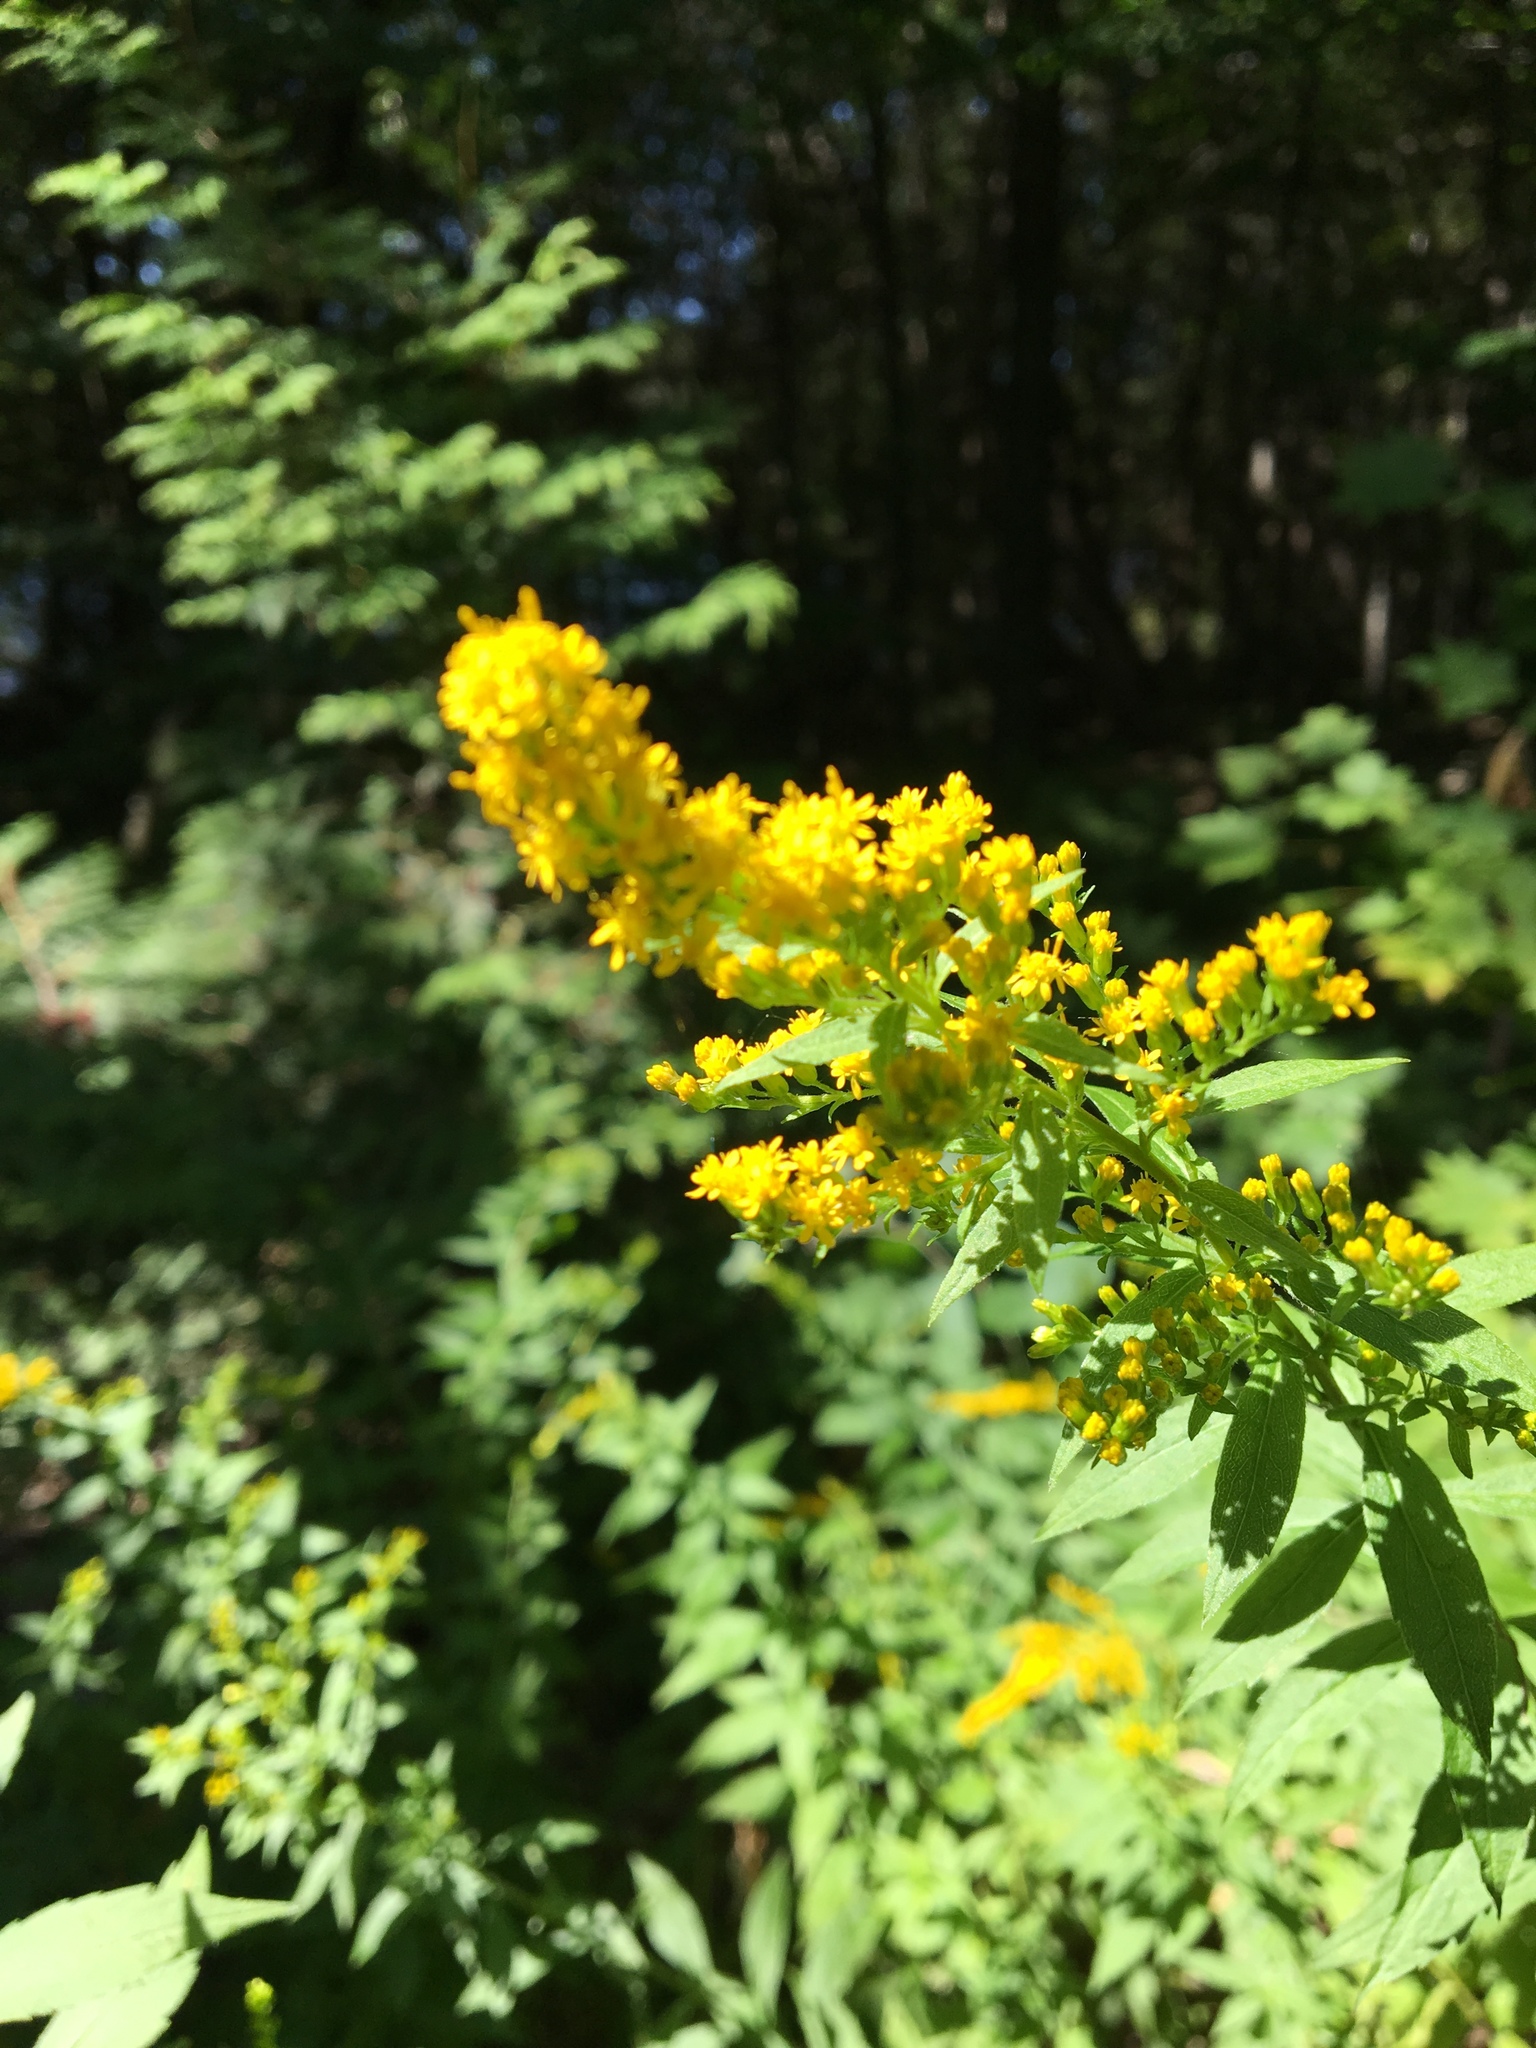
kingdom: Plantae
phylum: Tracheophyta
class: Magnoliopsida
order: Asterales
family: Asteraceae
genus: Solidago
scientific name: Solidago canadensis
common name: Canada goldenrod
